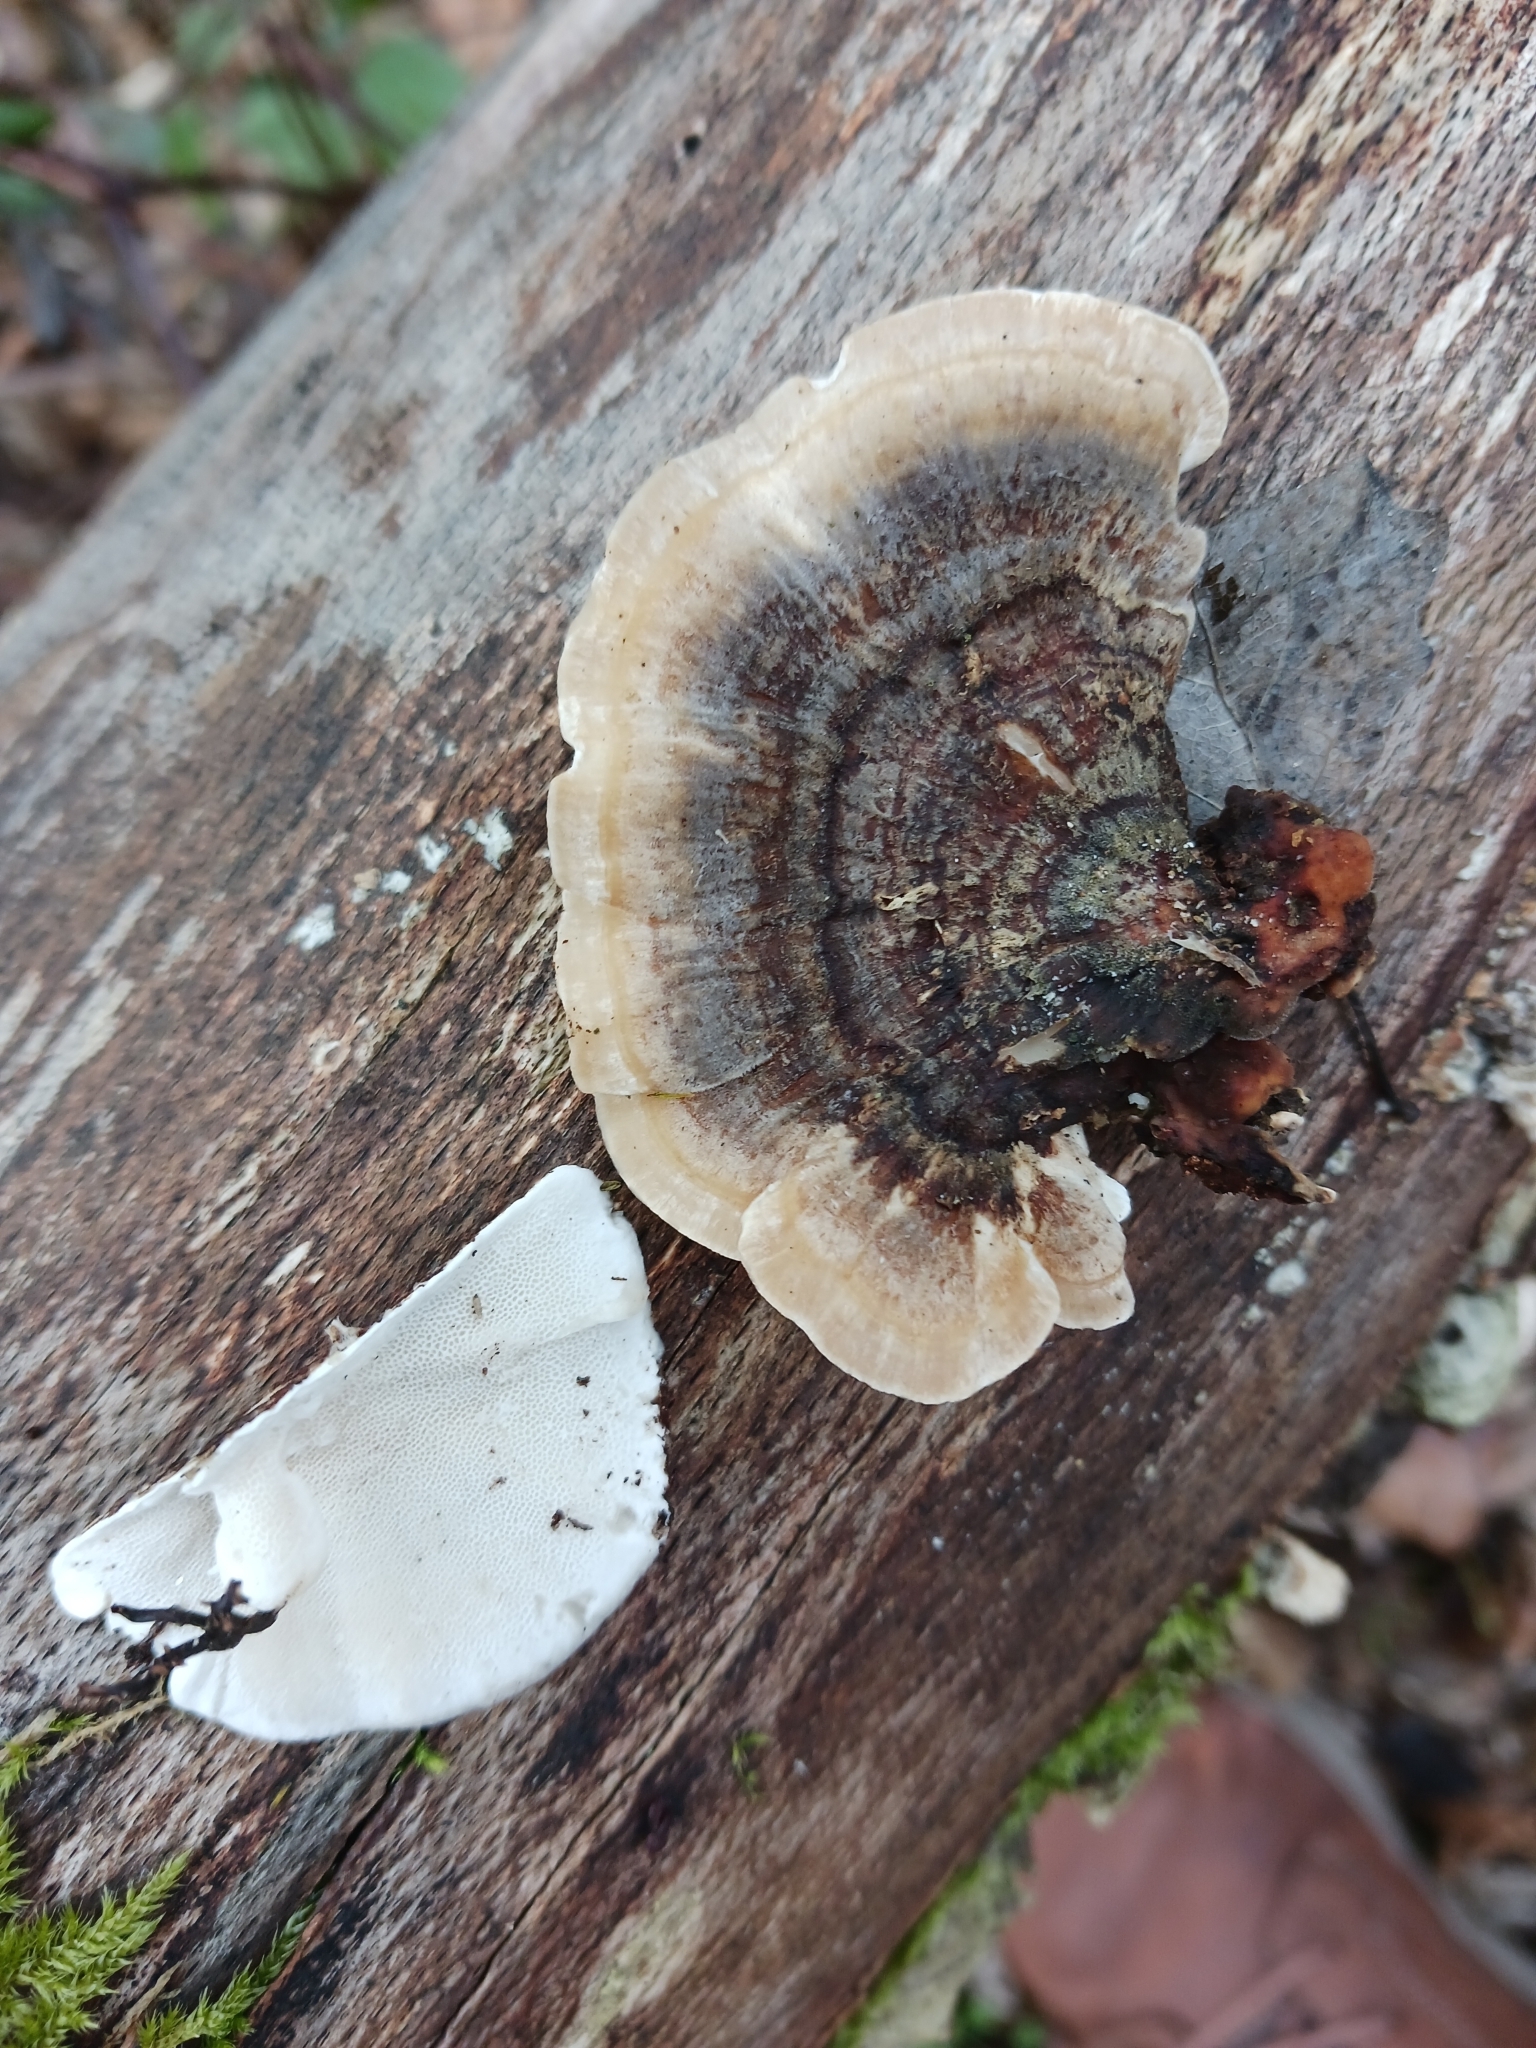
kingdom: Fungi
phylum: Basidiomycota
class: Agaricomycetes
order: Polyporales
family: Polyporaceae
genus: Trametes
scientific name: Trametes versicolor
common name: Turkeytail
